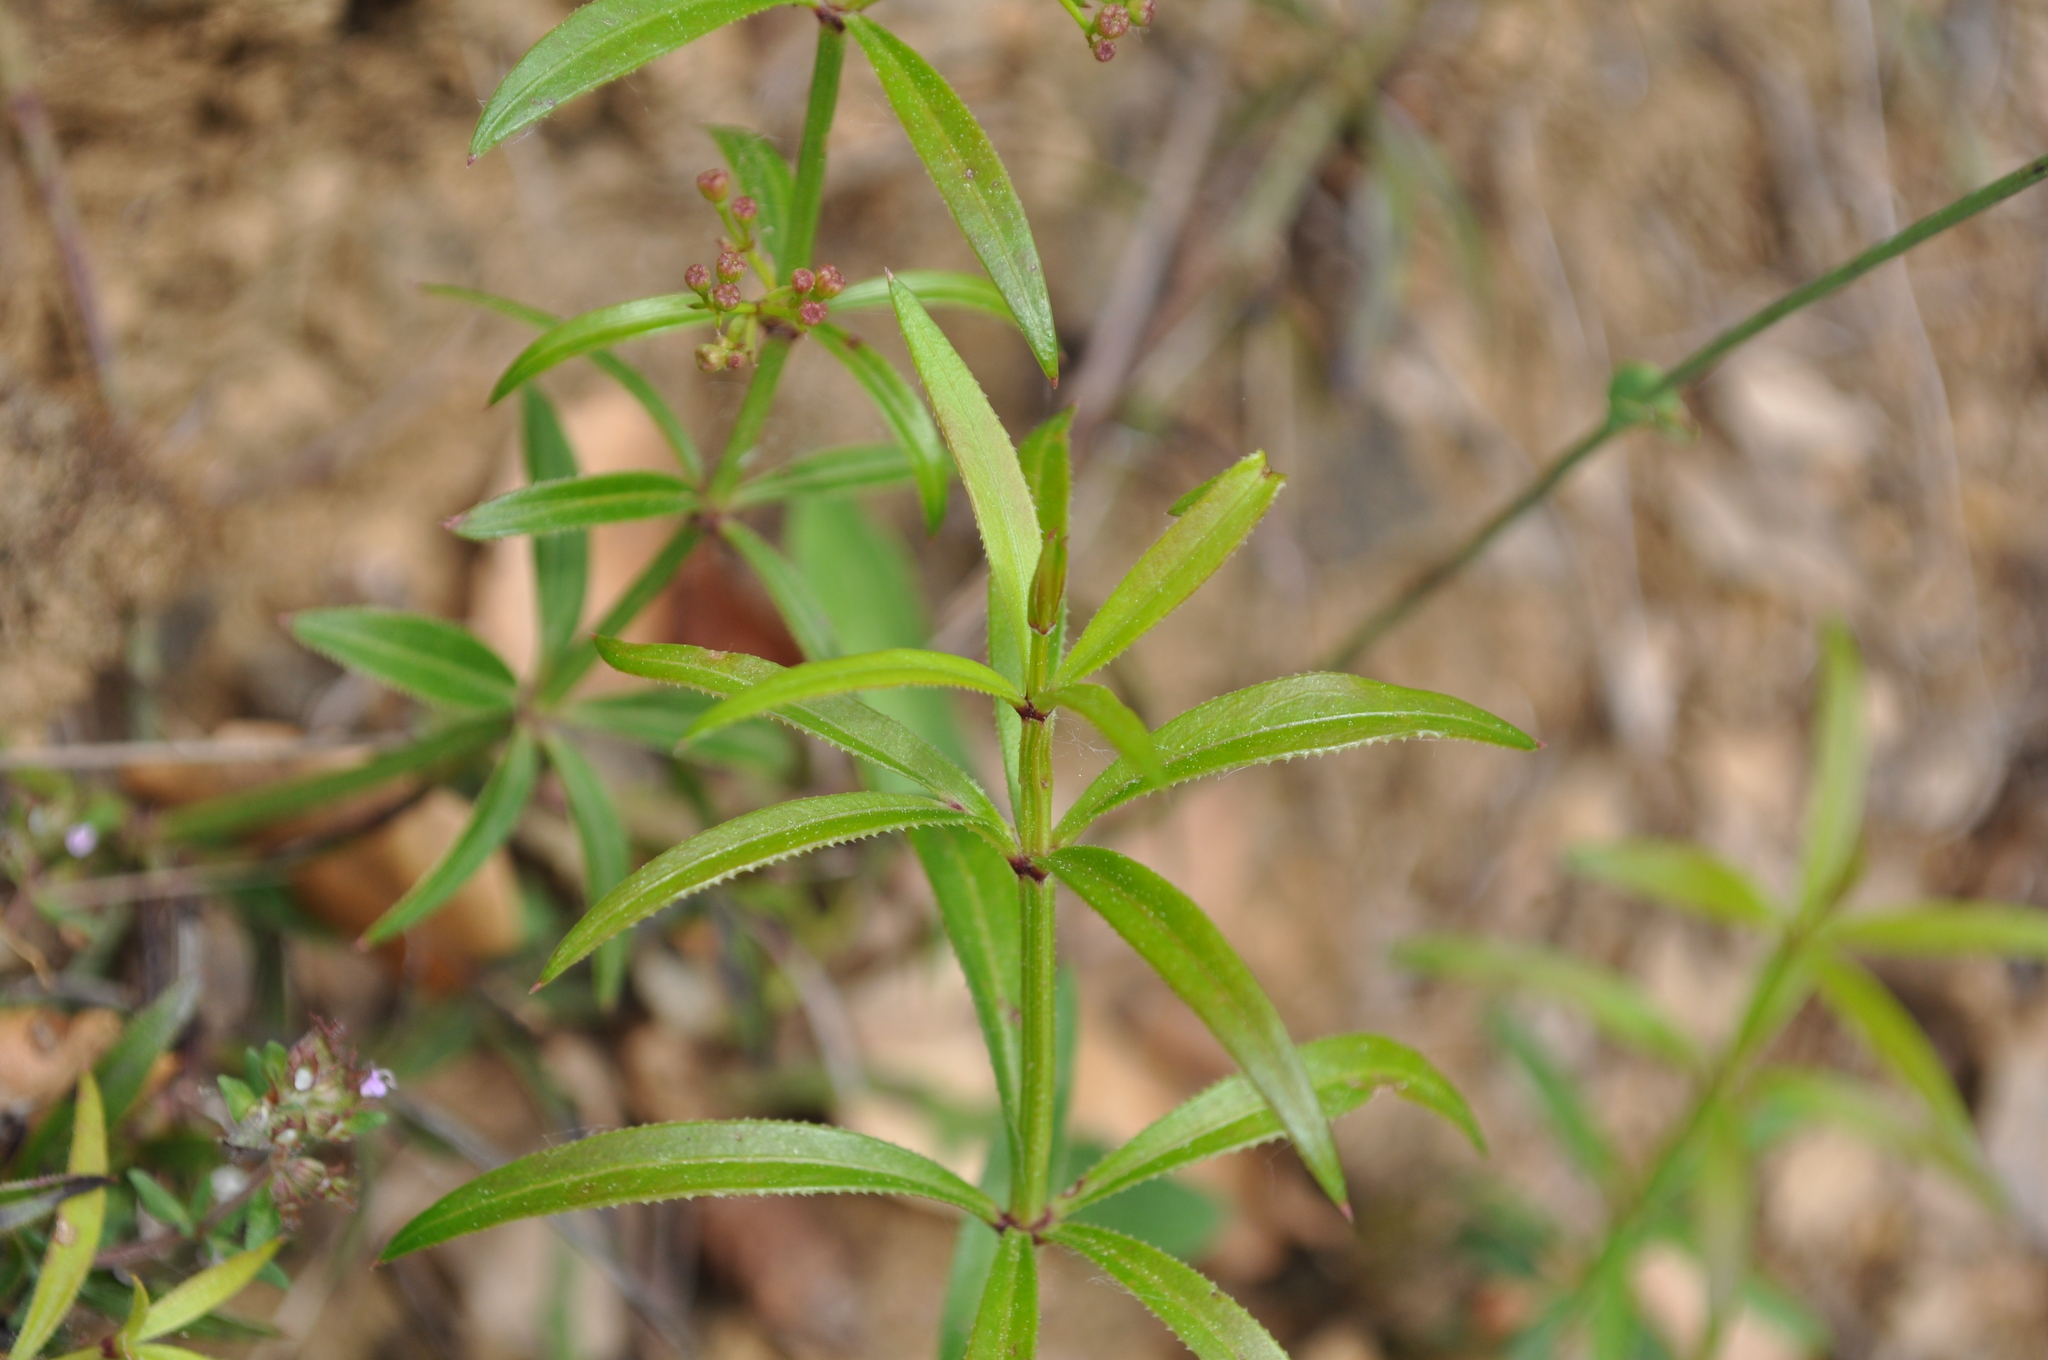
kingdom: Plantae
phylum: Tracheophyta
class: Magnoliopsida
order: Gentianales
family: Rubiaceae
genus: Rubia
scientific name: Rubia peregrina
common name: Wild madder
